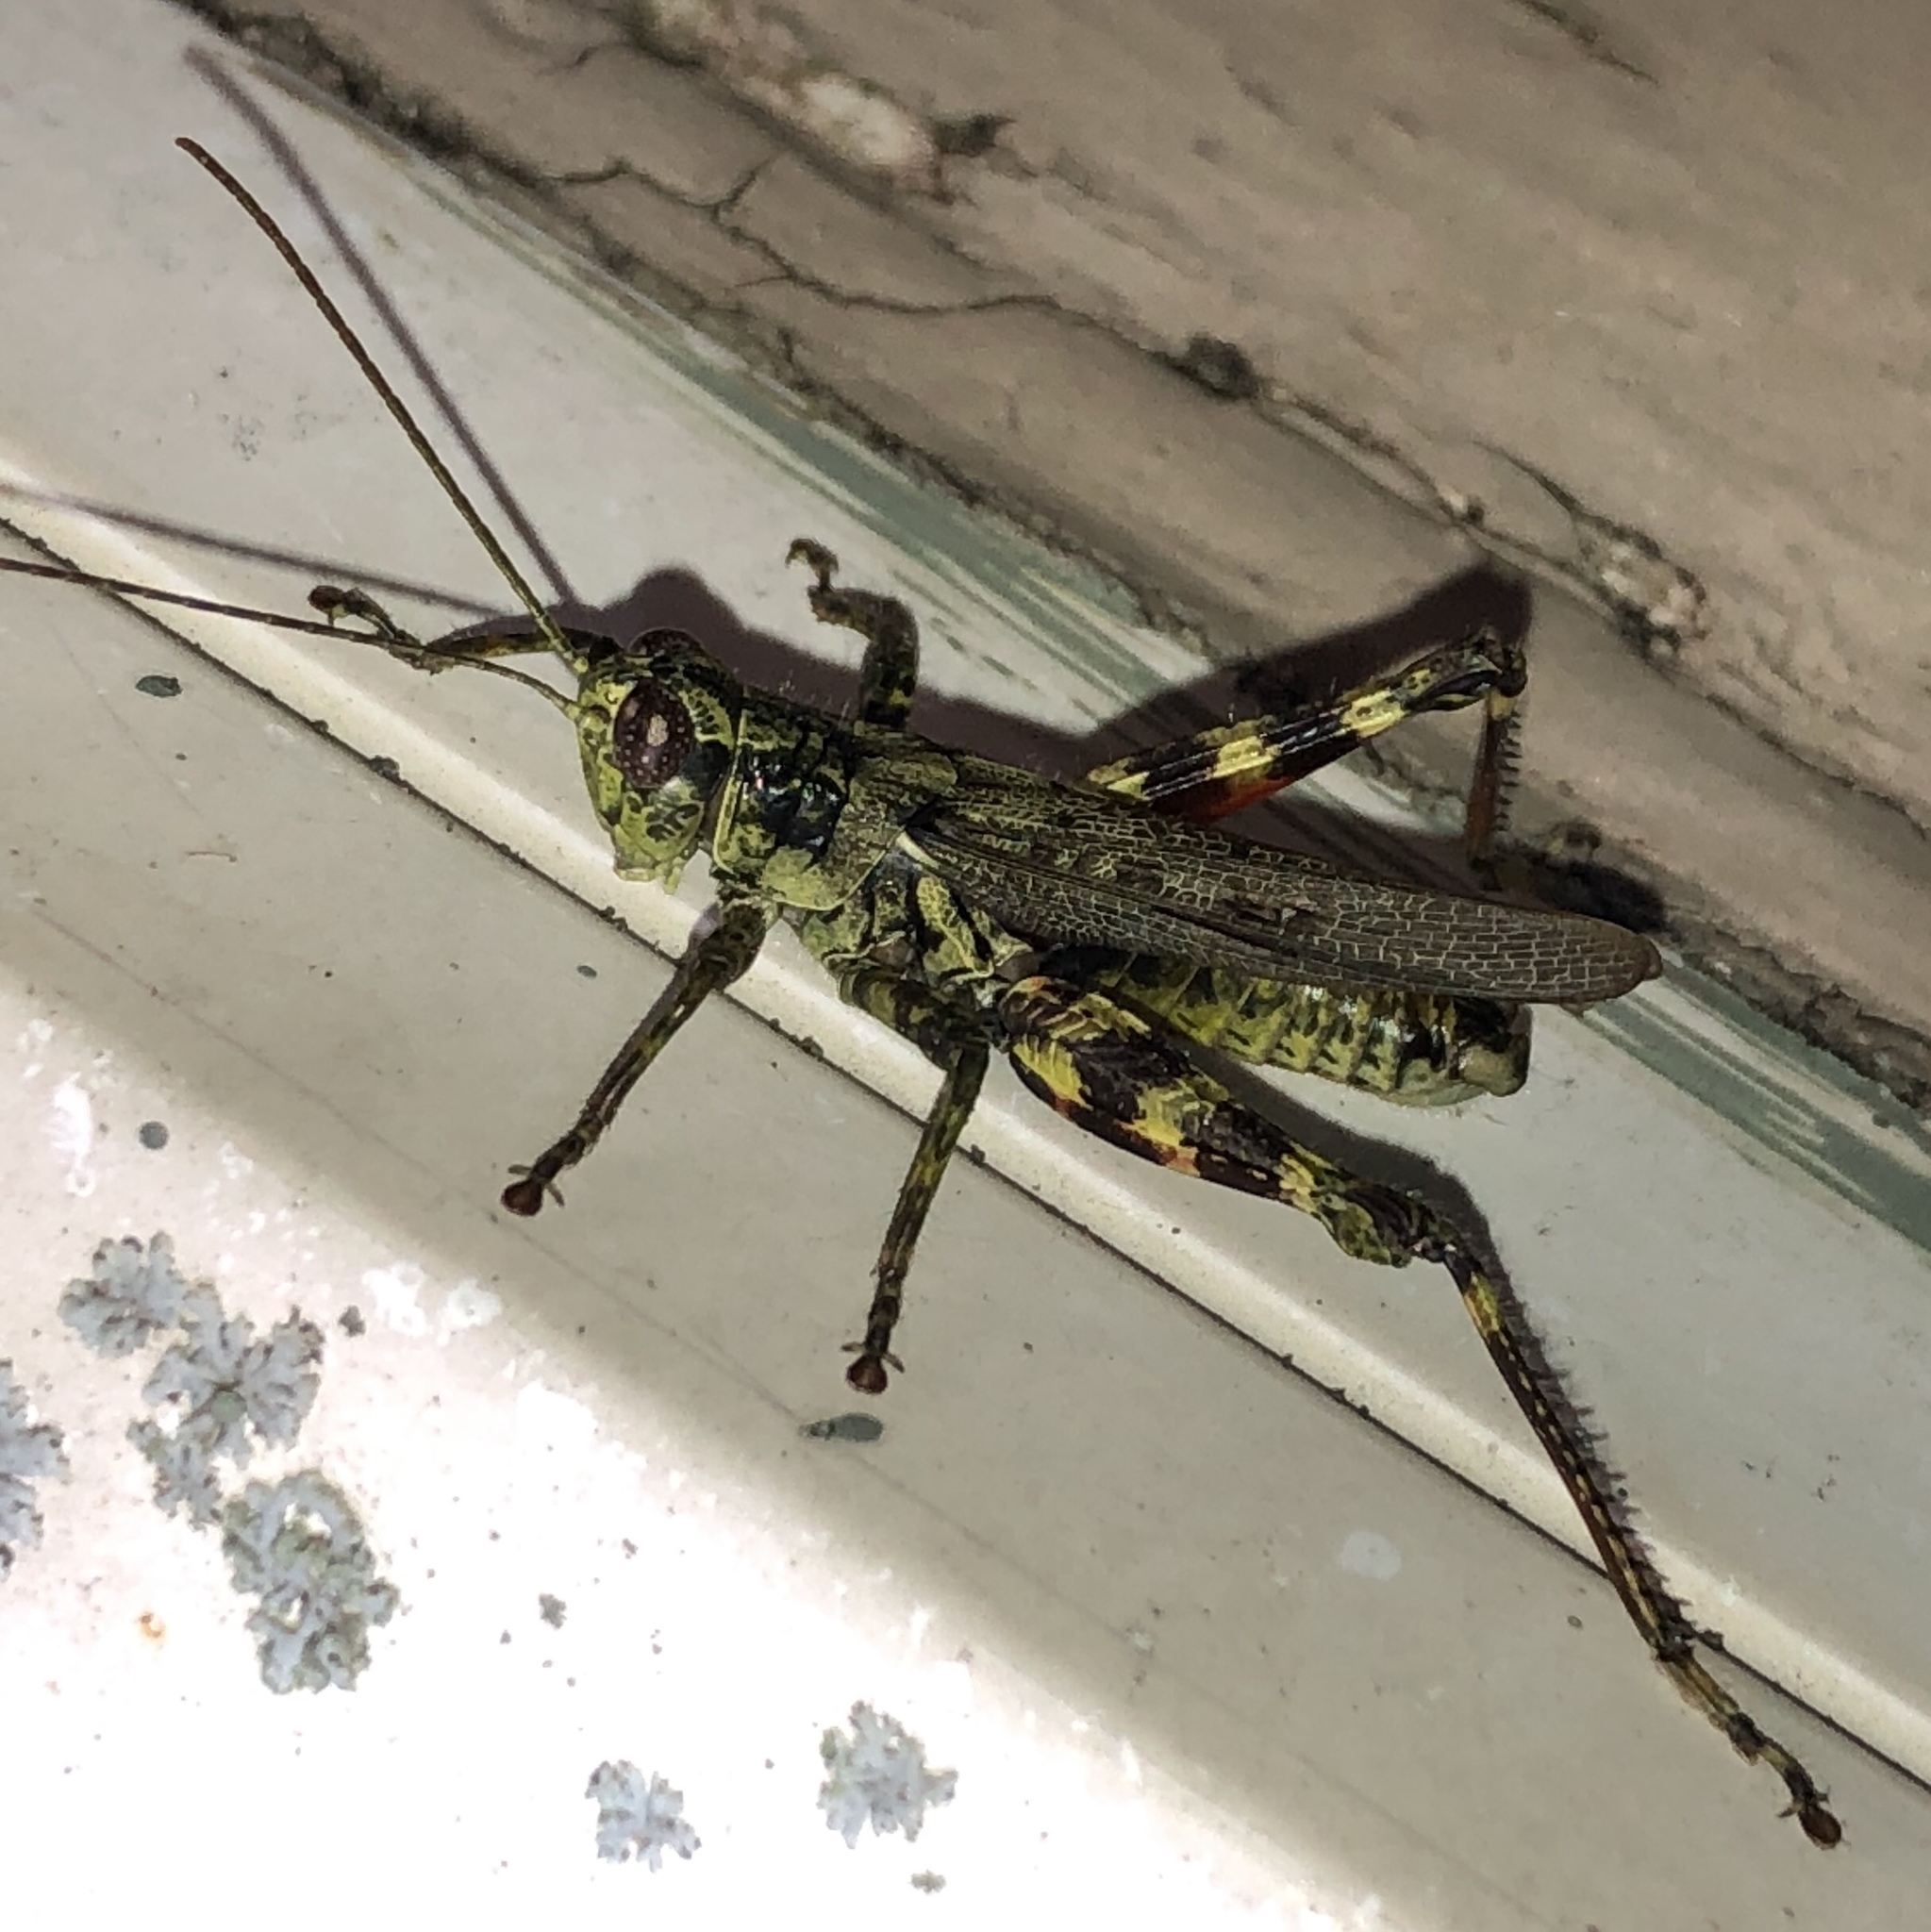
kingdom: Animalia
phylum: Arthropoda
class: Insecta
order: Orthoptera
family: Acrididae
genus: Melanoplus
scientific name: Melanoplus punctulatus
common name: Pine-tree spur-throat grasshopper
